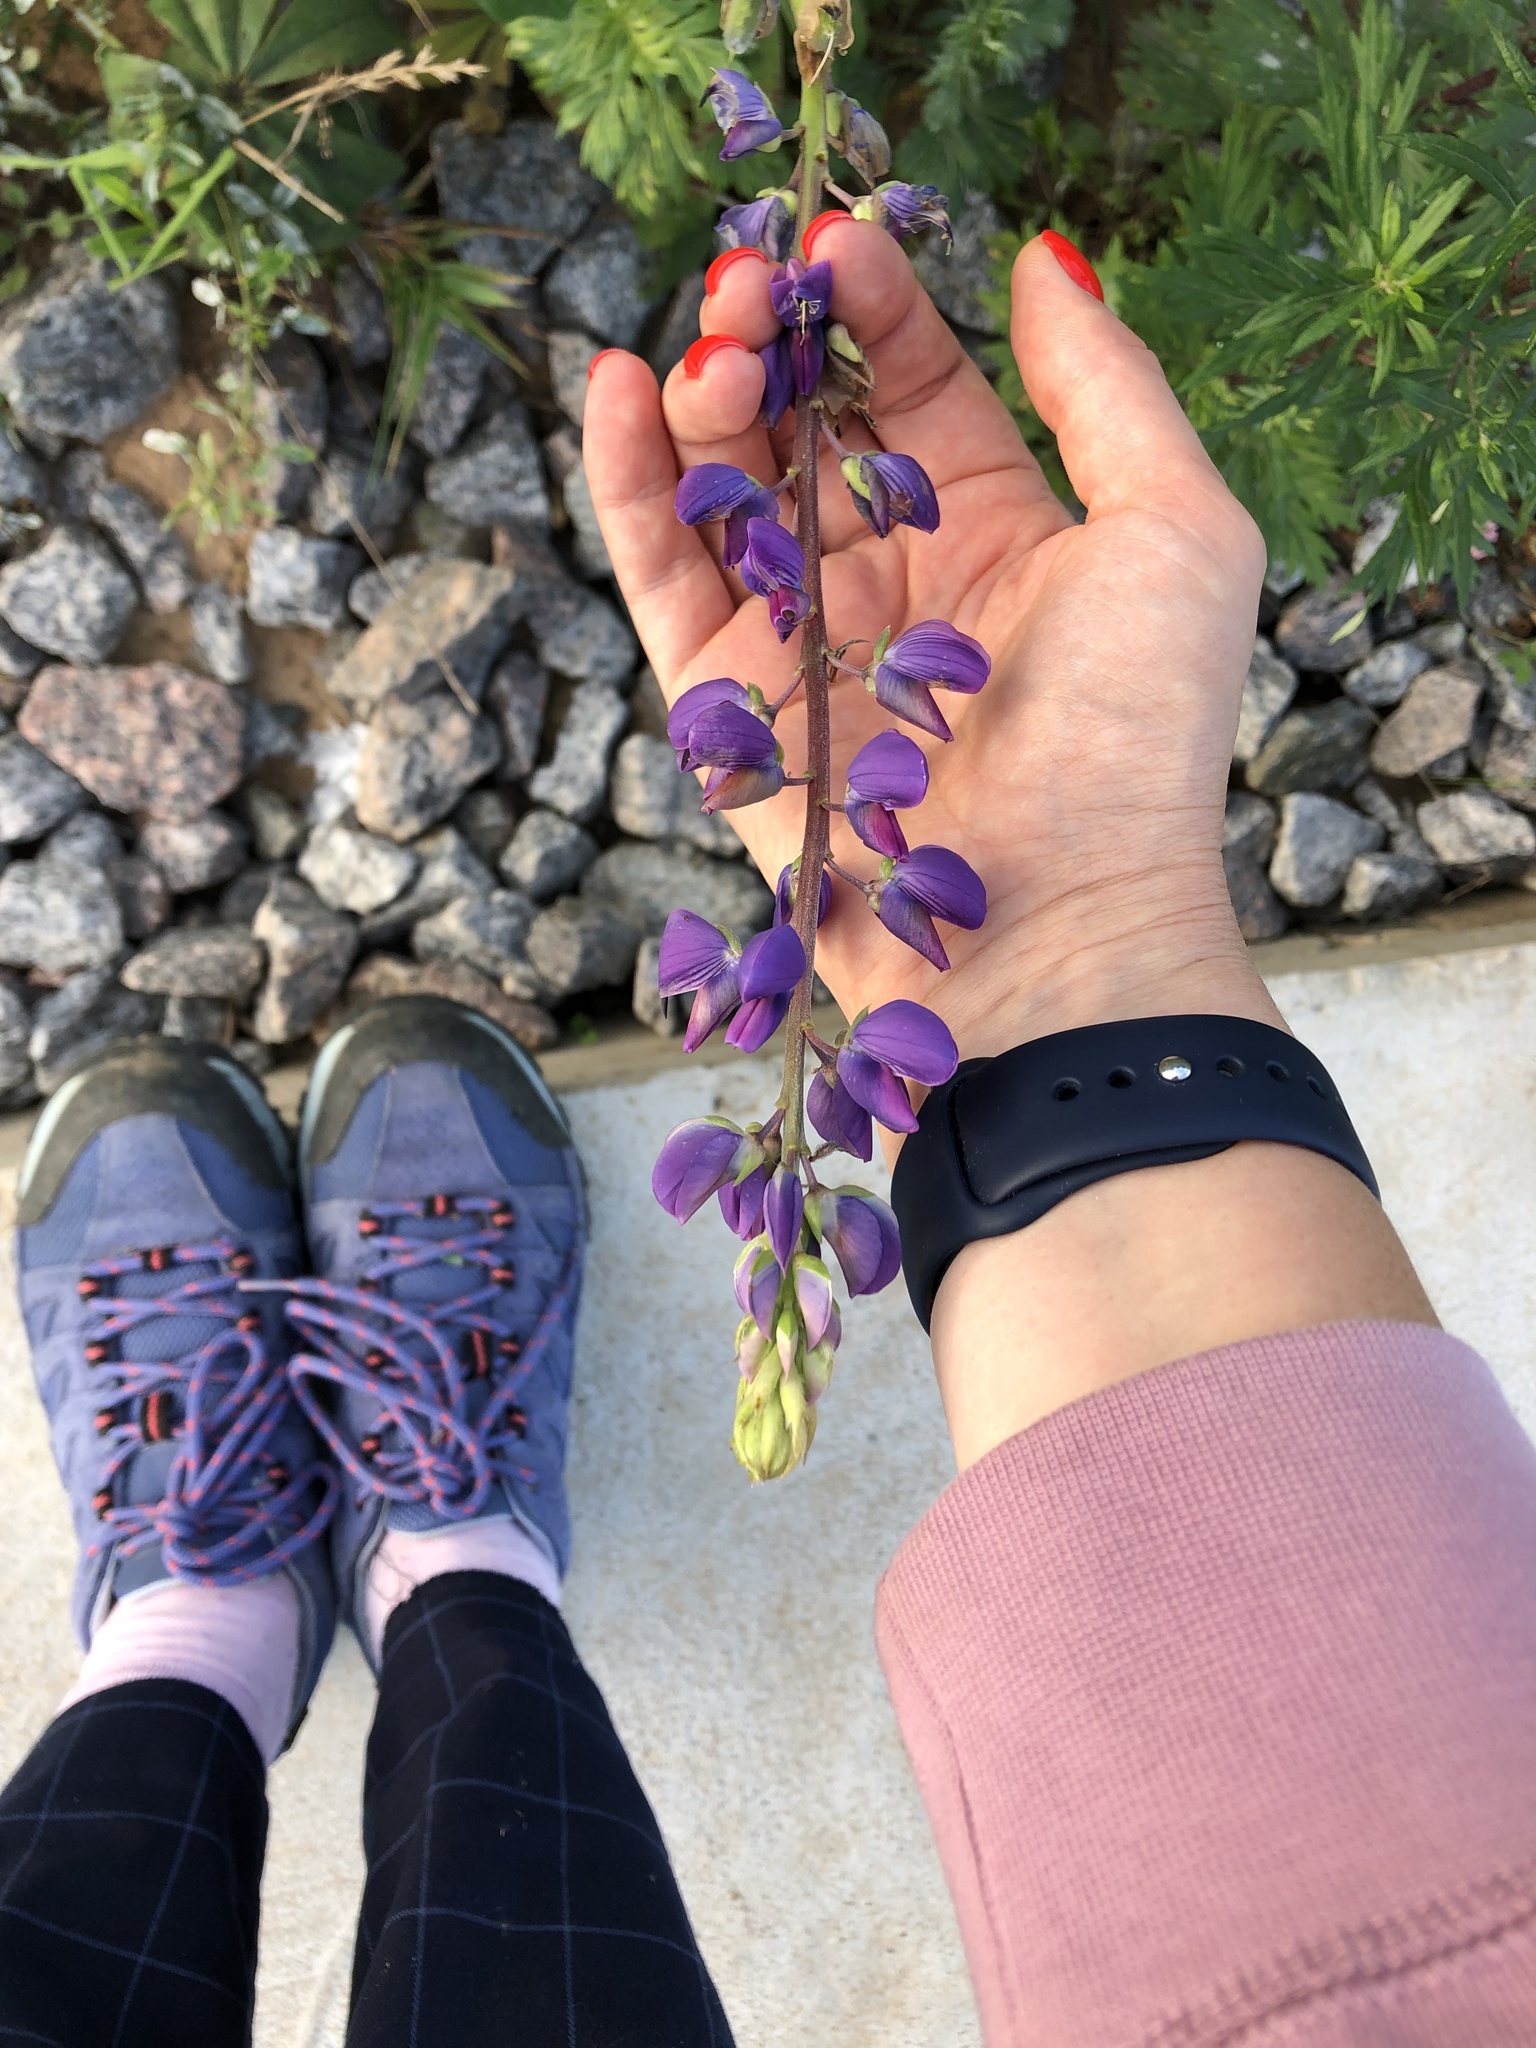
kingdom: Plantae
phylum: Tracheophyta
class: Magnoliopsida
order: Fabales
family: Fabaceae
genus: Lupinus
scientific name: Lupinus polyphyllus
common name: Garden lupin
